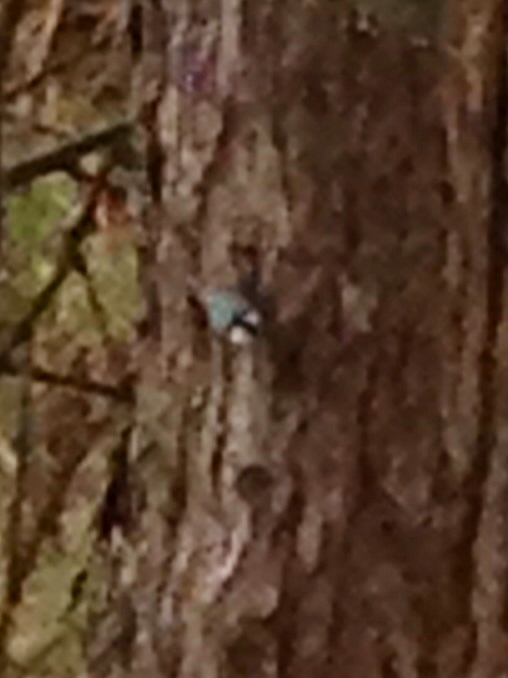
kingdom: Animalia
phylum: Chordata
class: Aves
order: Passeriformes
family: Sittidae
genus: Sitta
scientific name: Sitta carolinensis
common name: White-breasted nuthatch
